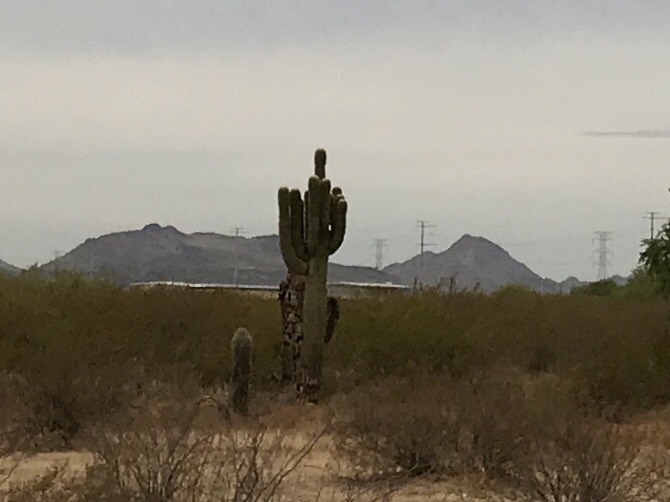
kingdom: Plantae
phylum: Tracheophyta
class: Magnoliopsida
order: Caryophyllales
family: Cactaceae
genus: Carnegiea
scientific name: Carnegiea gigantea
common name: Saguaro
